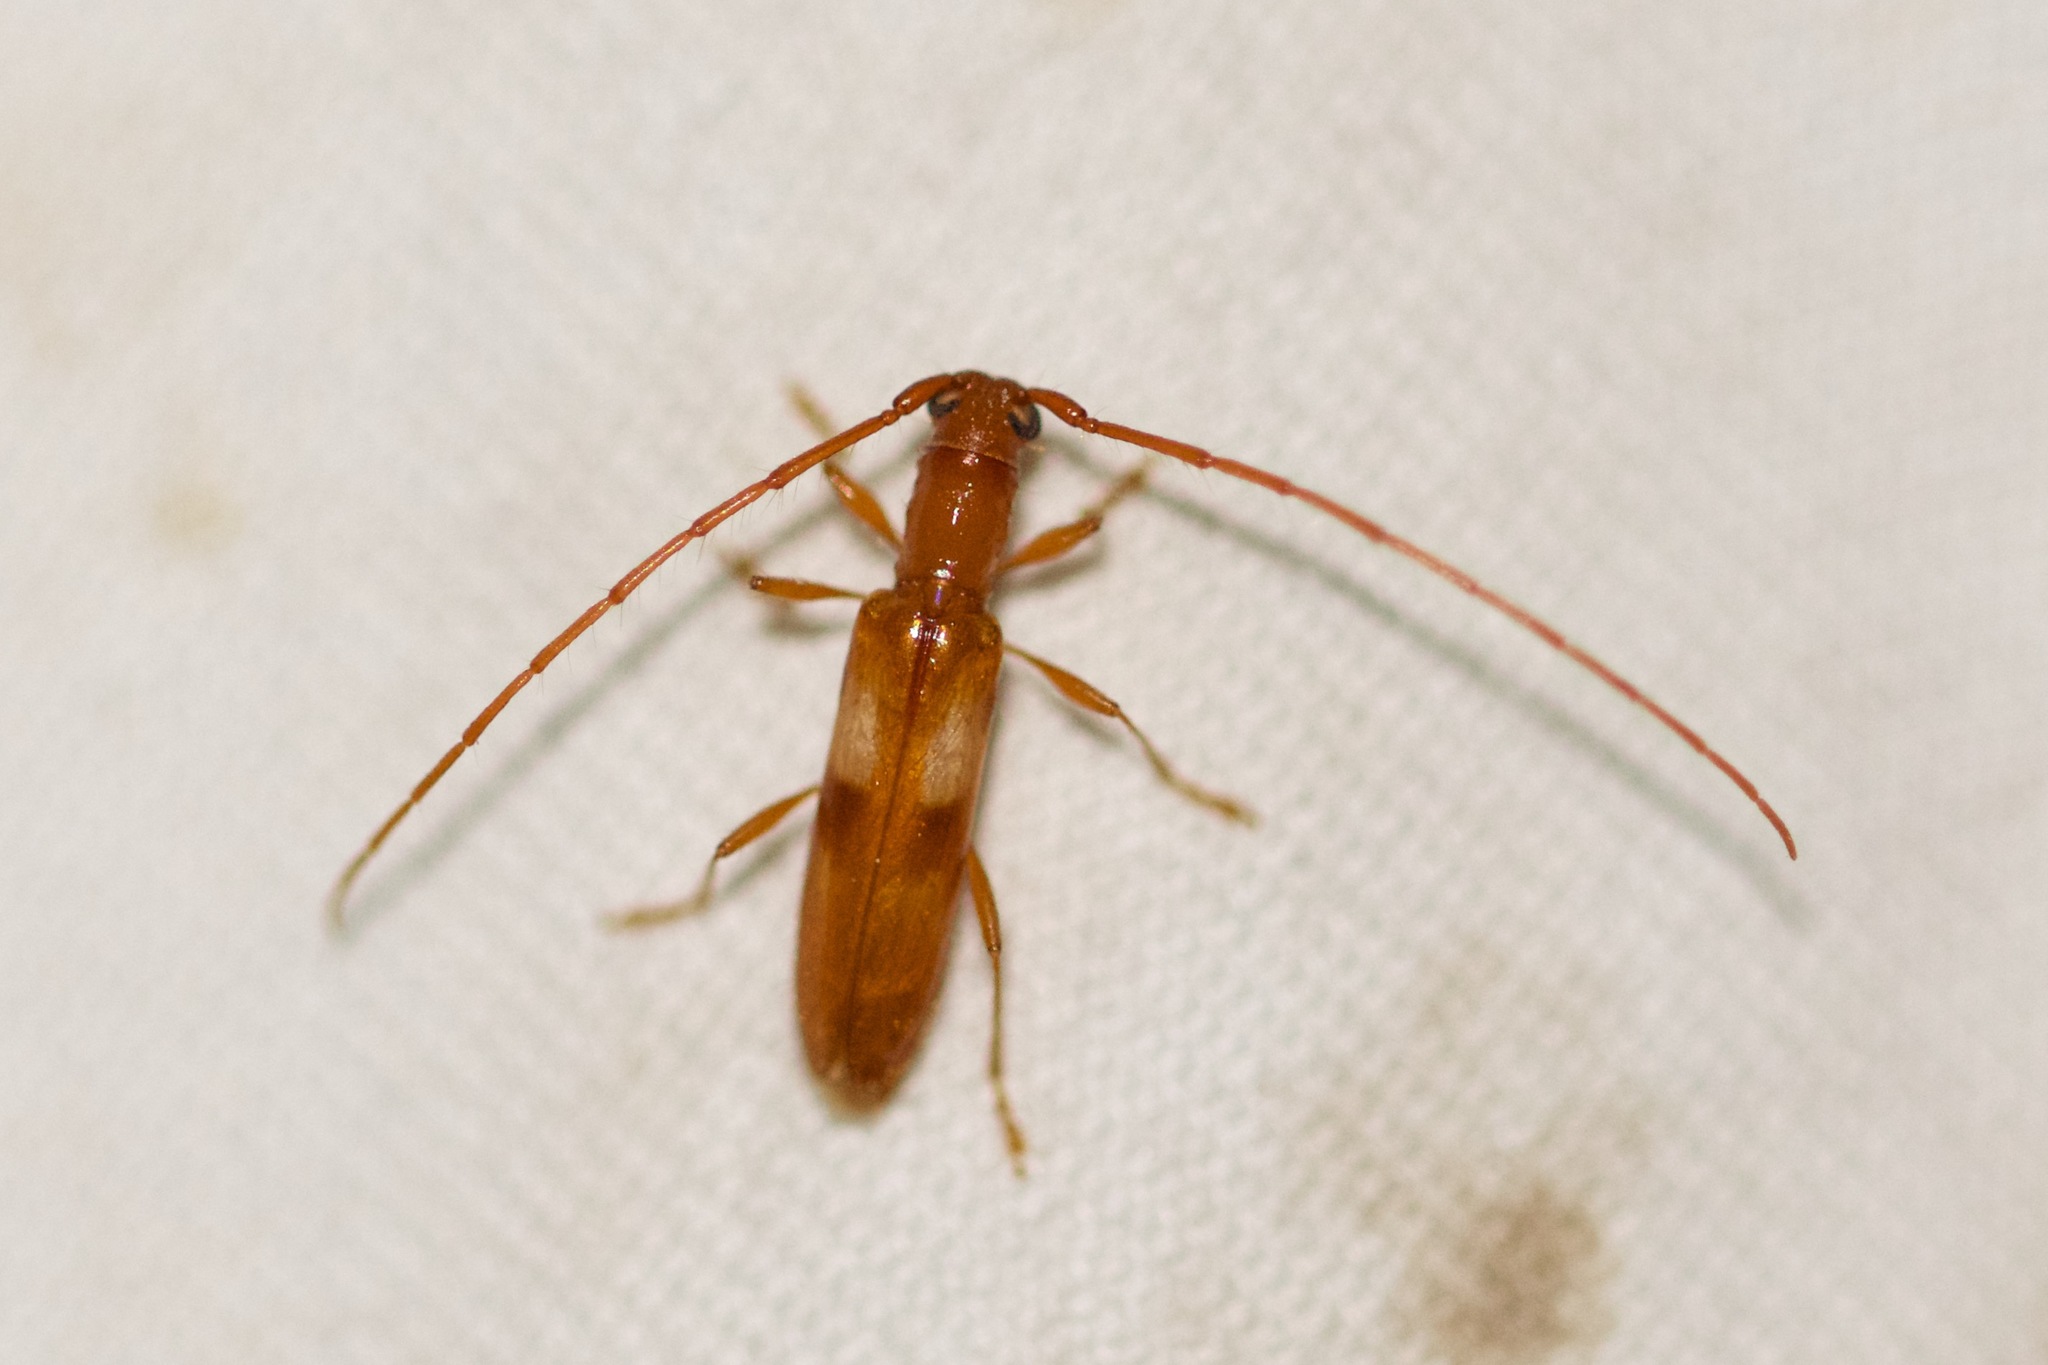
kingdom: Animalia
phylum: Arthropoda
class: Insecta
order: Coleoptera
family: Cerambycidae
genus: Heterachthes
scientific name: Heterachthes quadrimaculatus
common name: Four-spotted hickory borer
